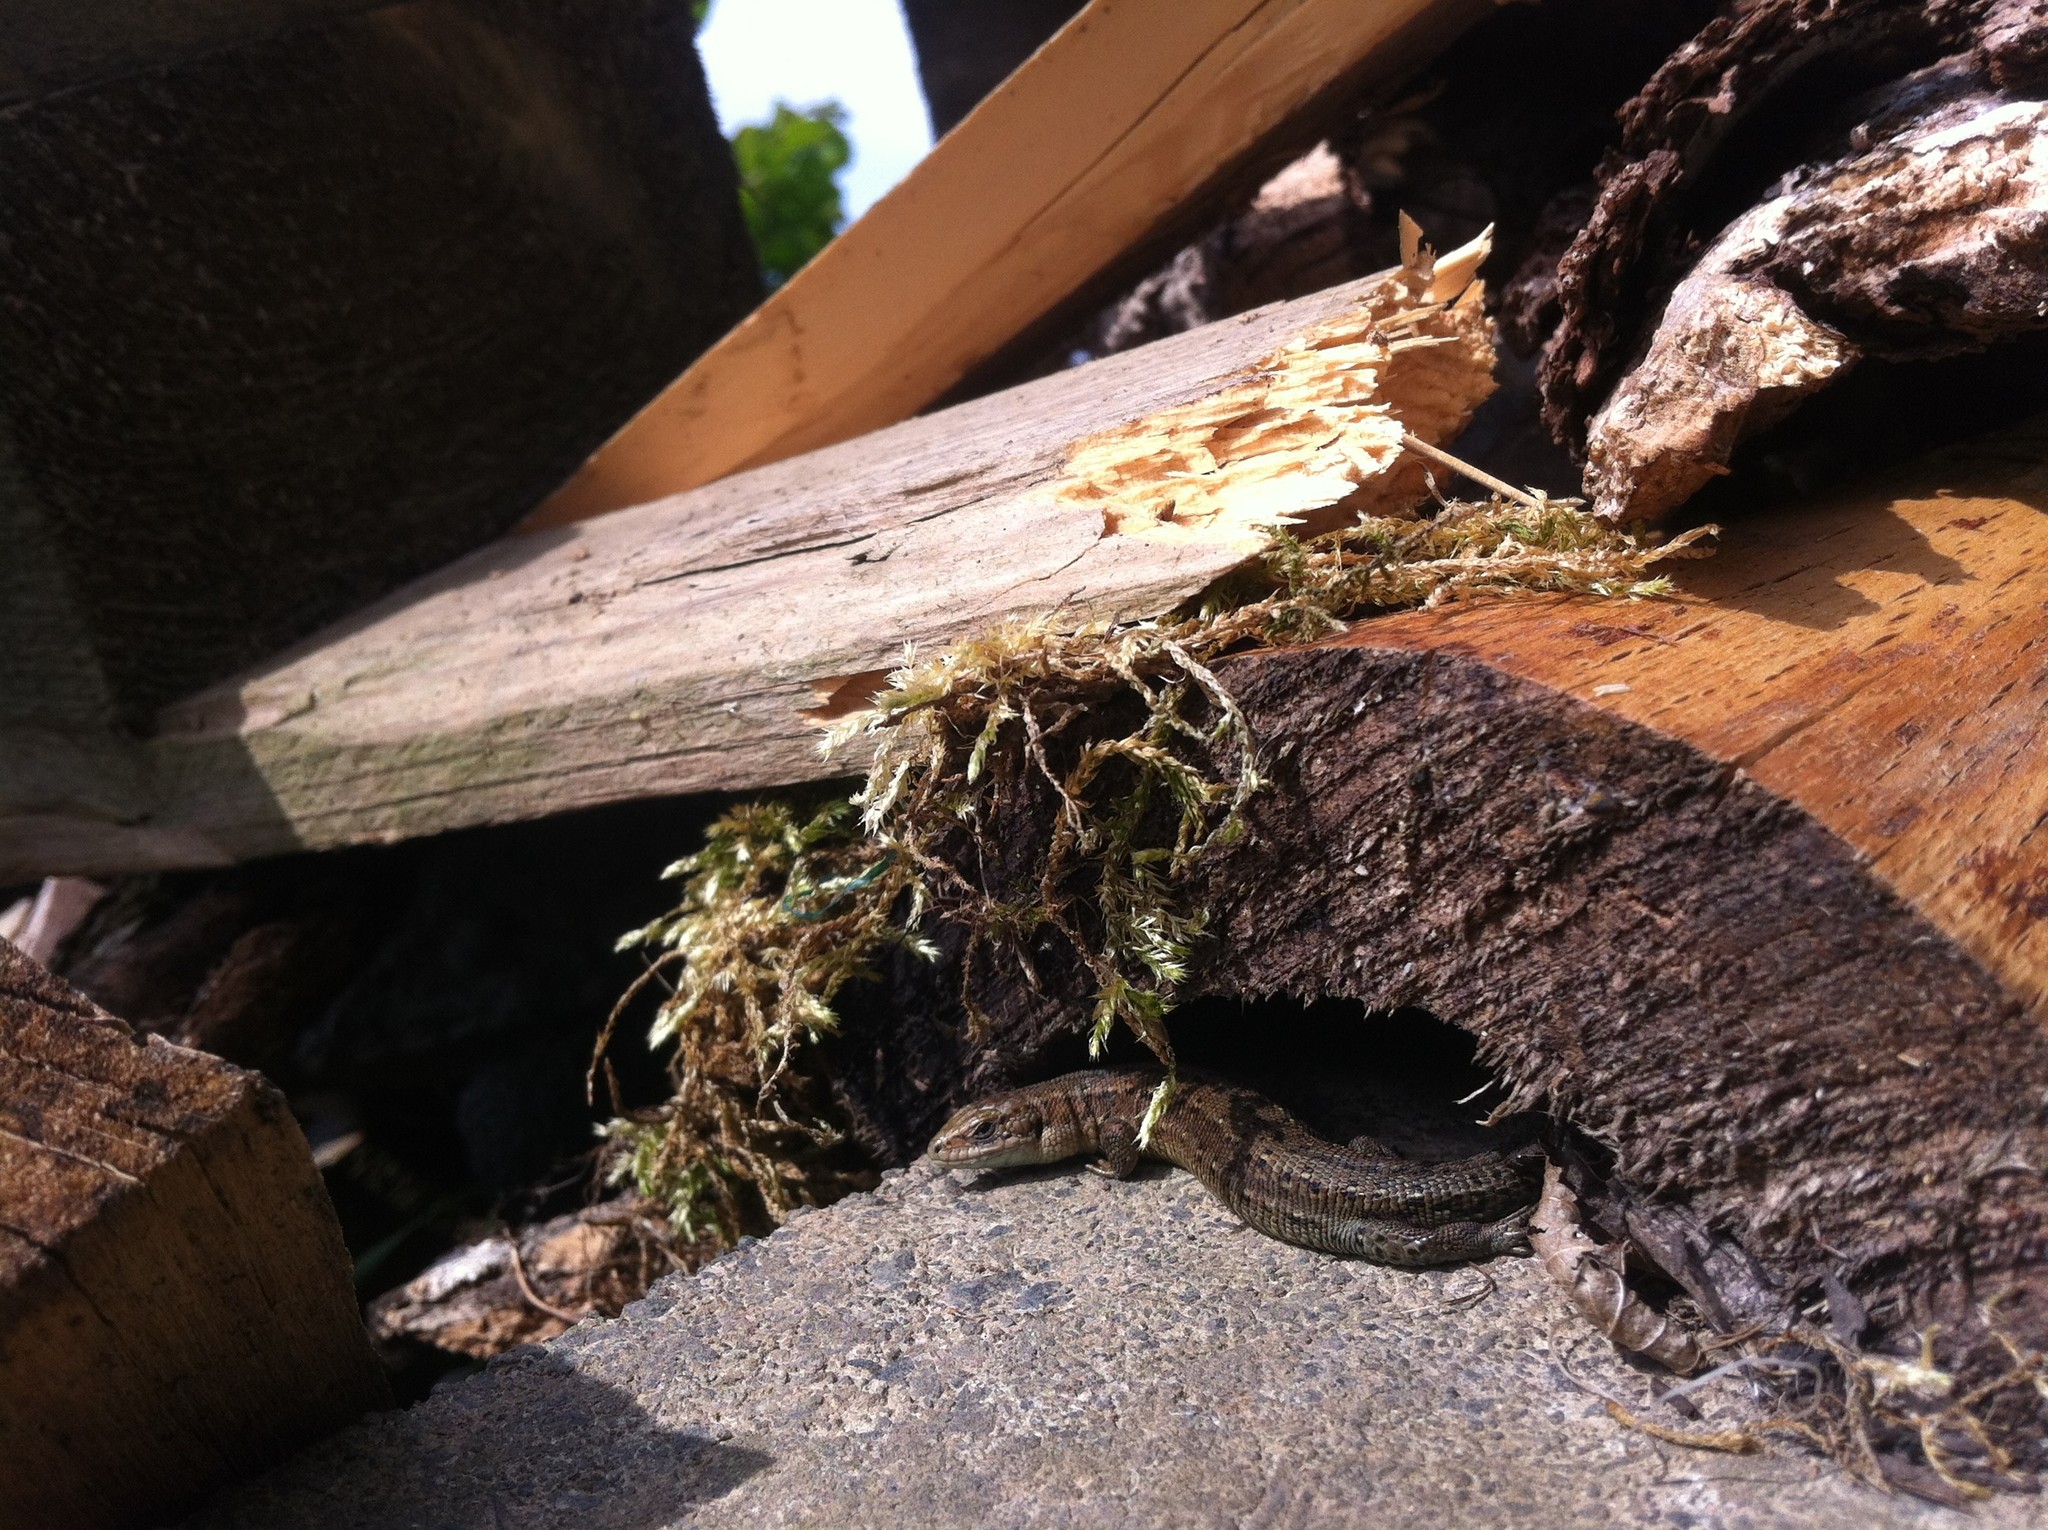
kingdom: Animalia
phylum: Chordata
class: Squamata
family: Lacertidae
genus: Zootoca
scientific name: Zootoca vivipara
